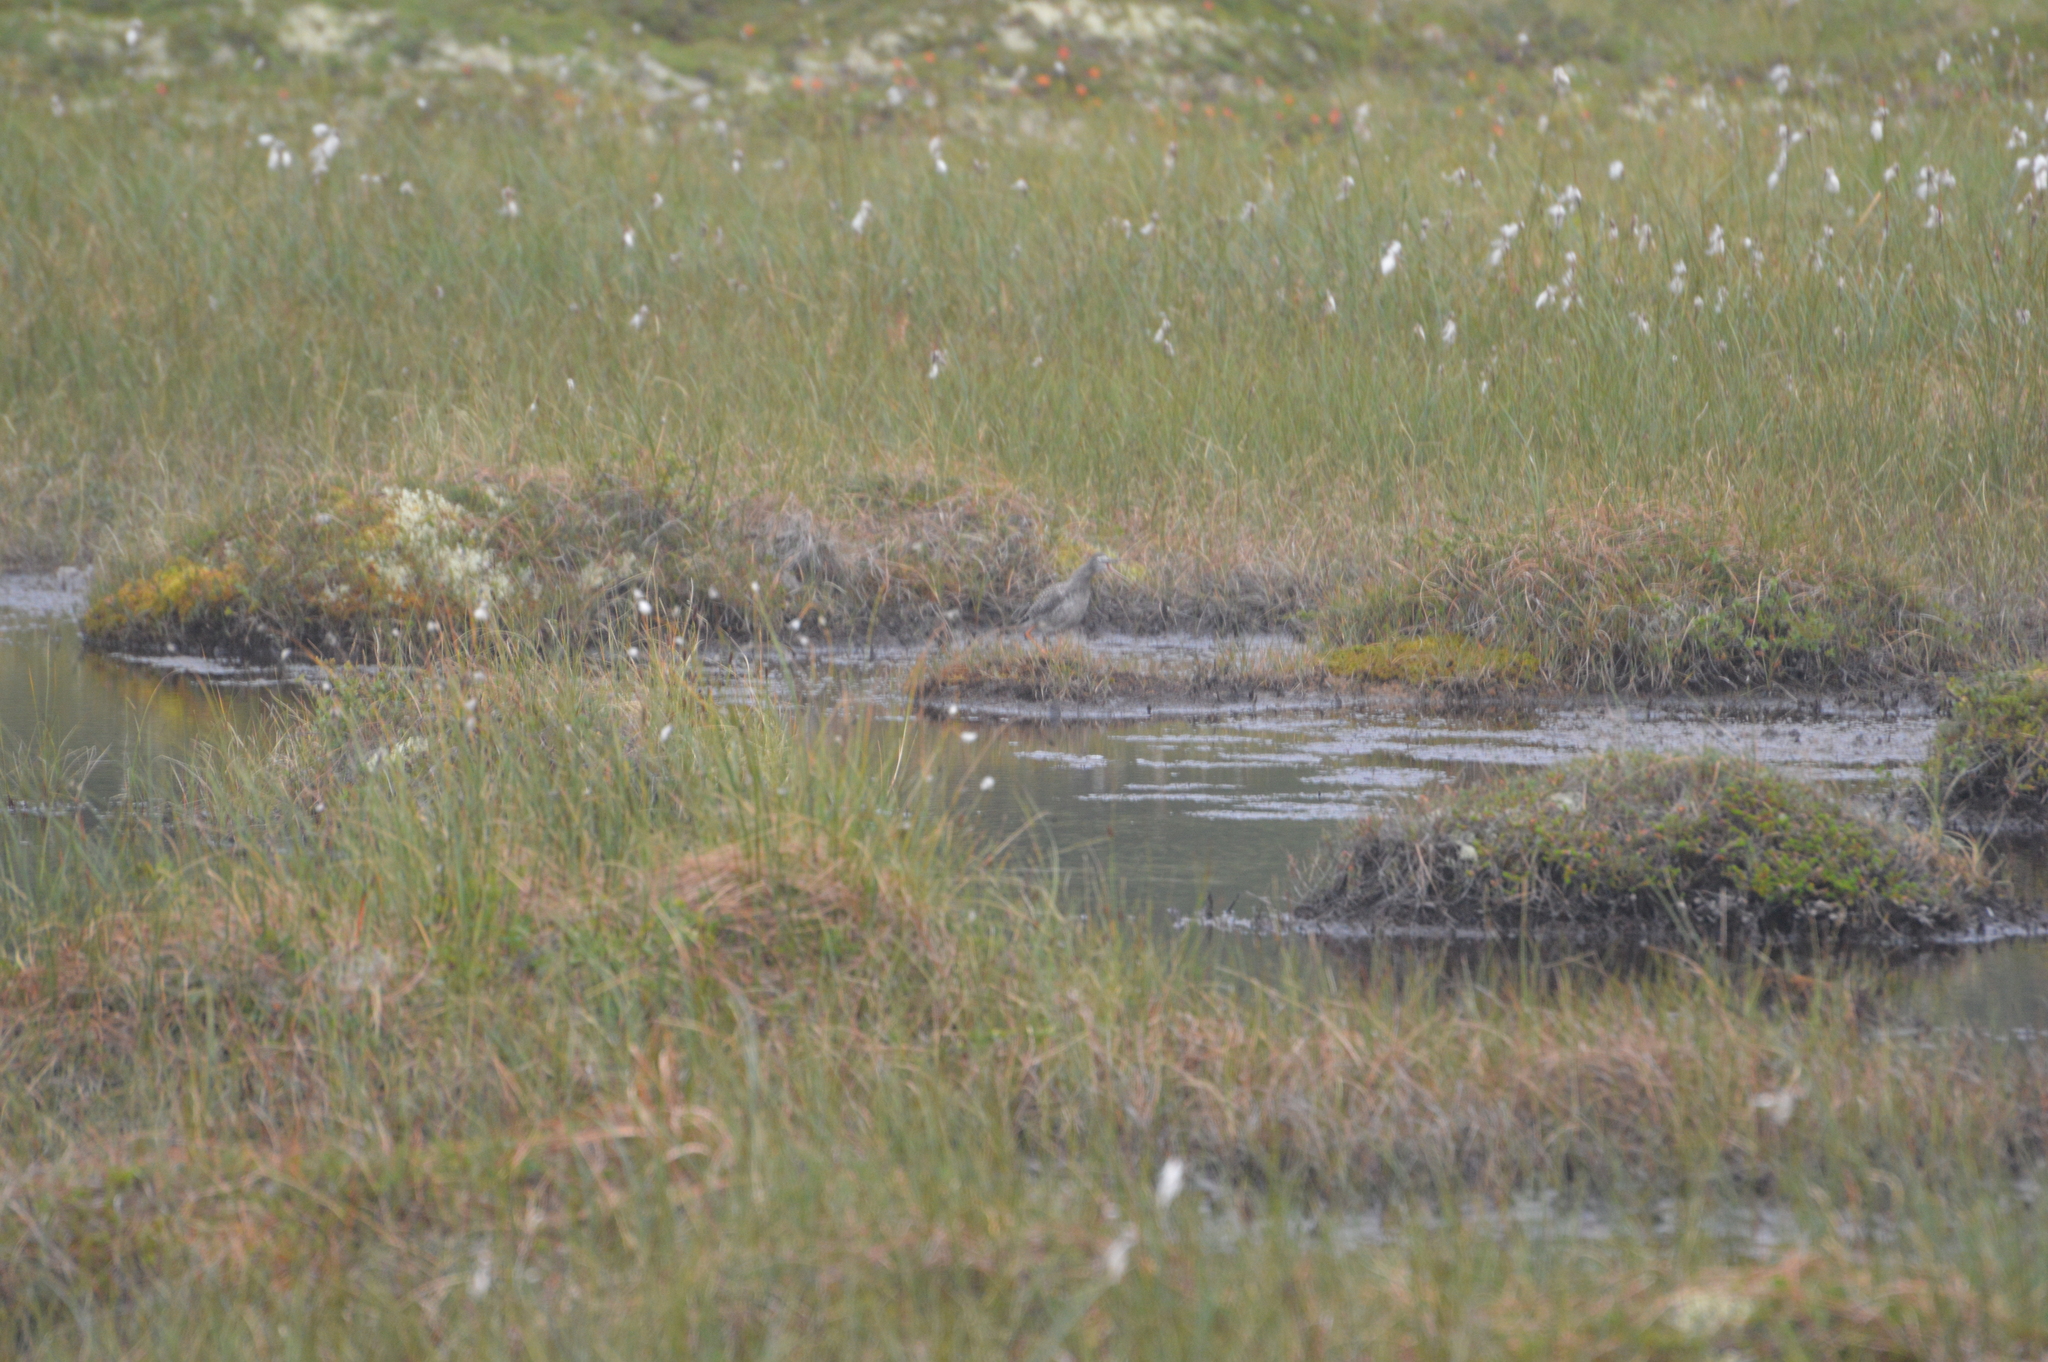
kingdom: Animalia
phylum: Chordata
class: Aves
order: Charadriiformes
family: Scolopacidae
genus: Tringa
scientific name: Tringa totanus
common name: Common redshank
